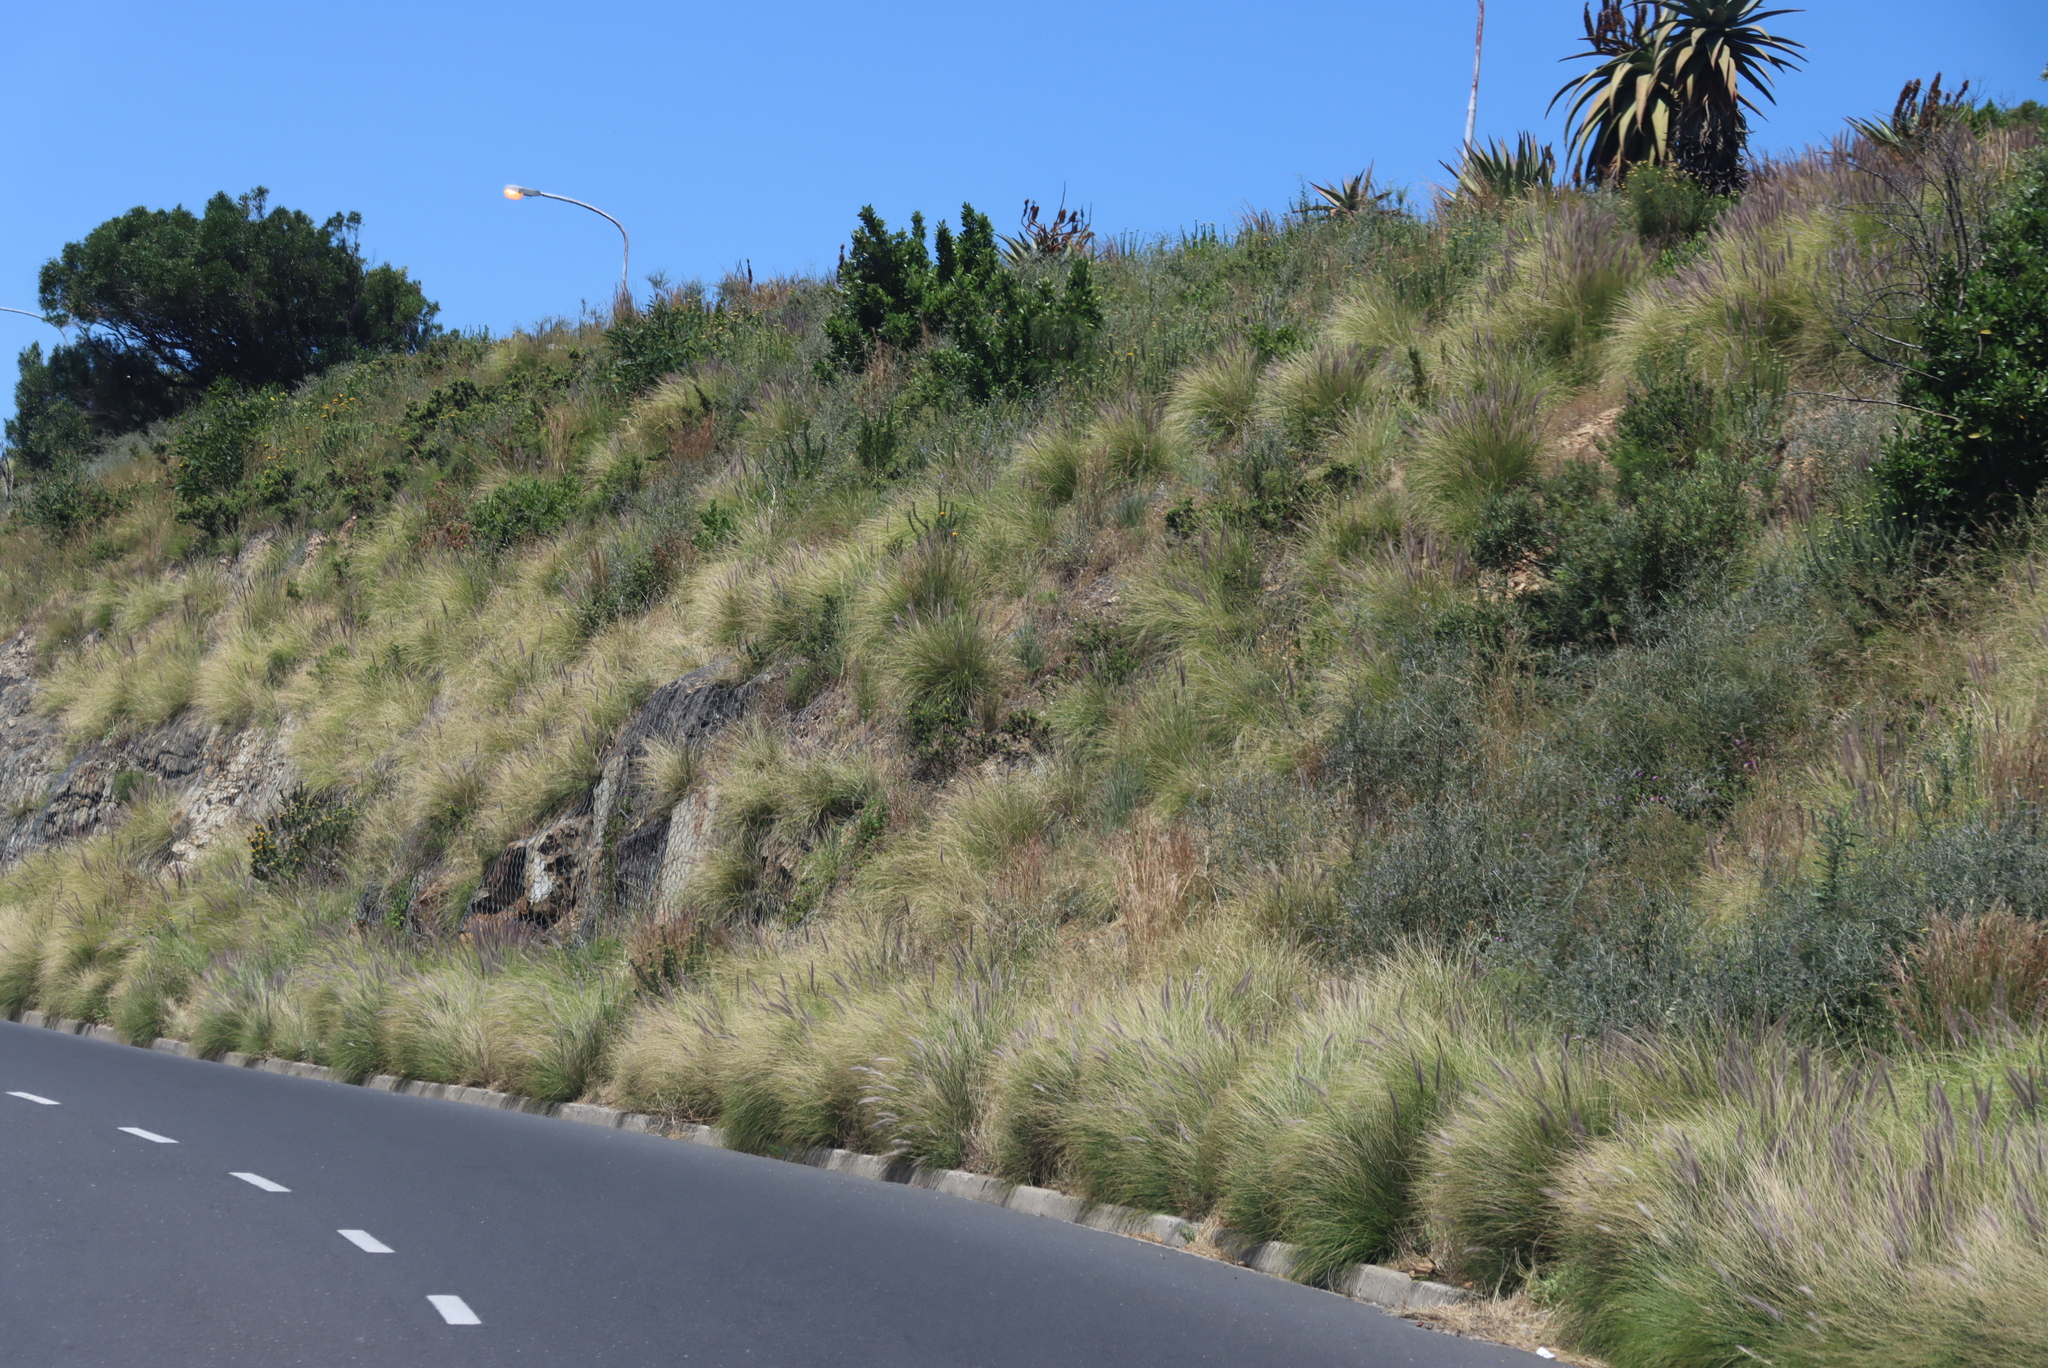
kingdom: Plantae
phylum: Tracheophyta
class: Liliopsida
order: Poales
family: Poaceae
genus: Cenchrus
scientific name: Cenchrus setaceus
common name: Crimson fountaingrass
